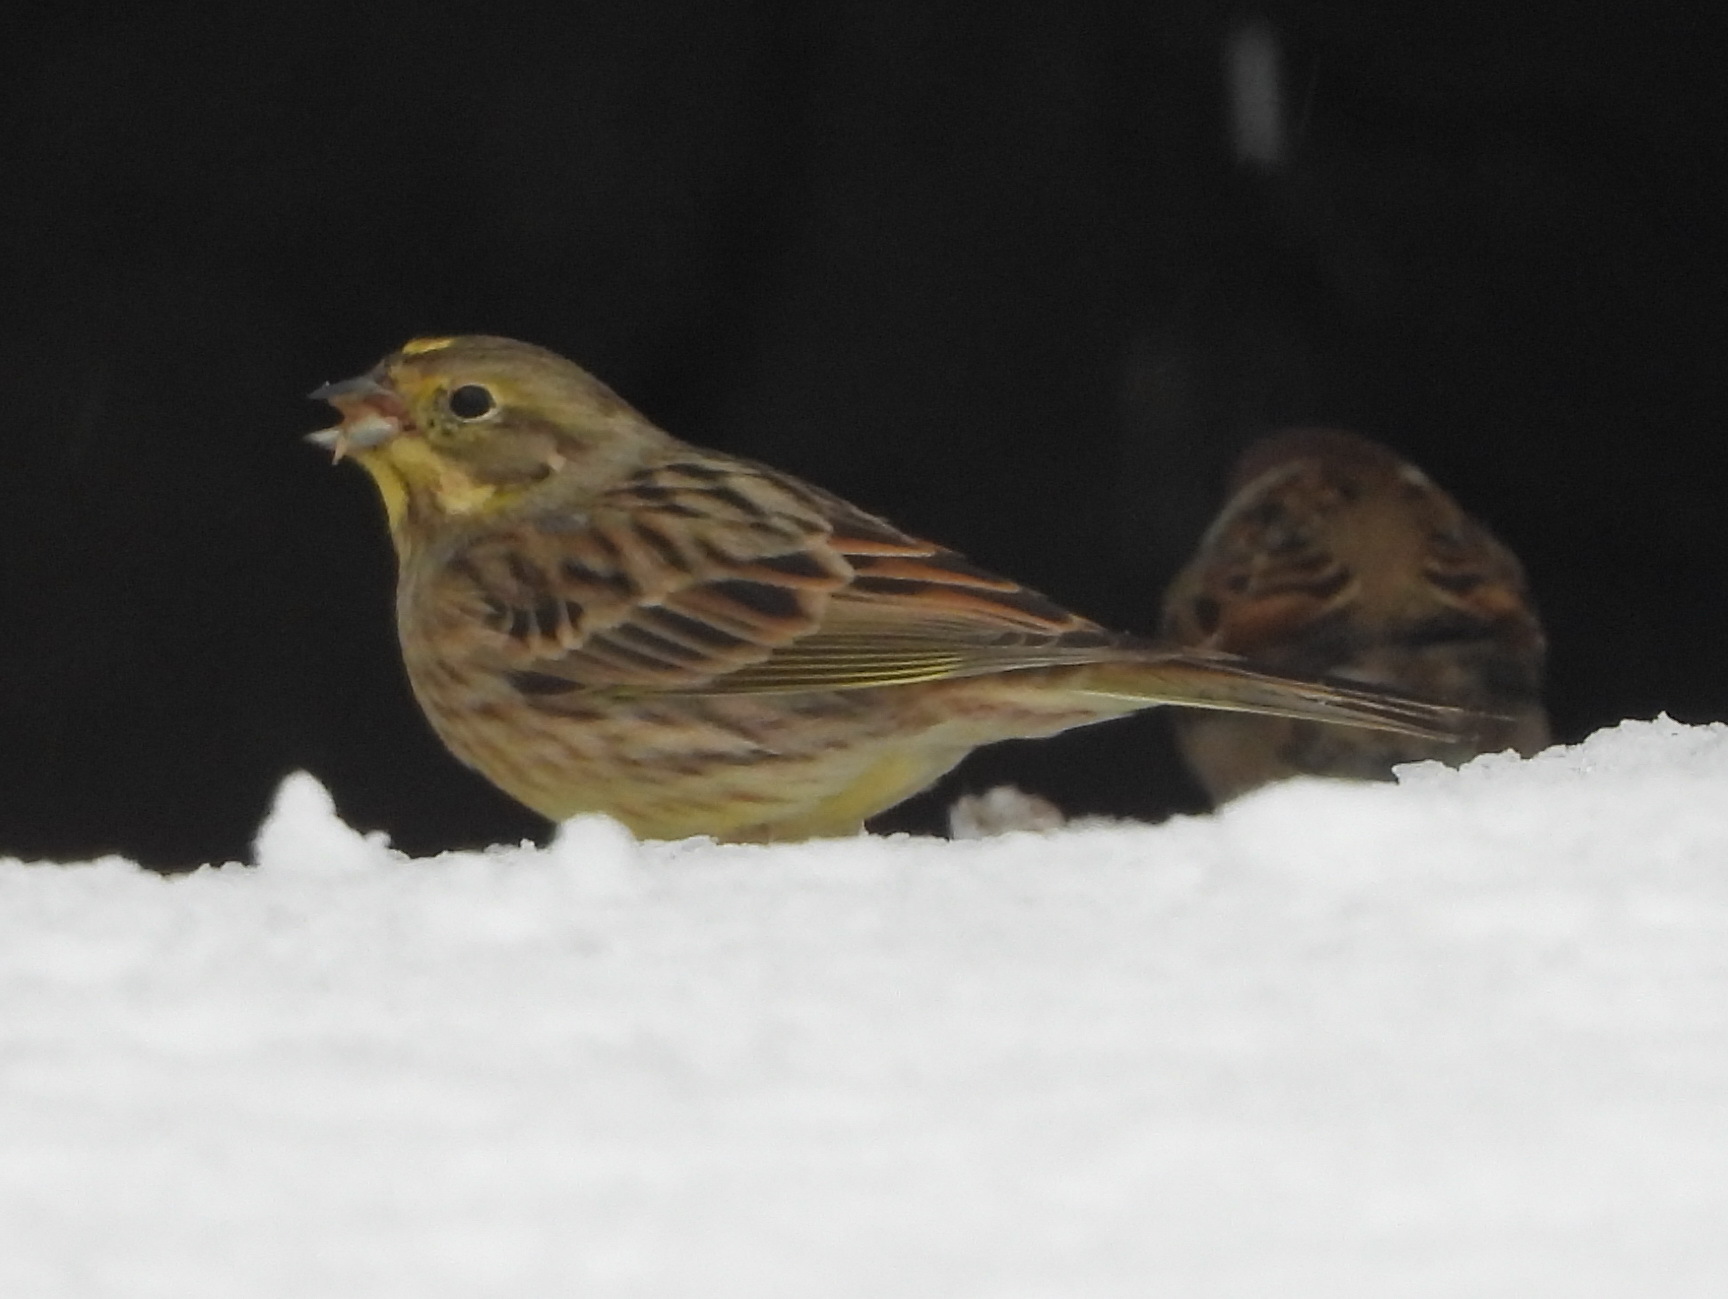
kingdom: Animalia
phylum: Chordata
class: Aves
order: Passeriformes
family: Emberizidae
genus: Emberiza
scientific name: Emberiza citrinella
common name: Yellowhammer
